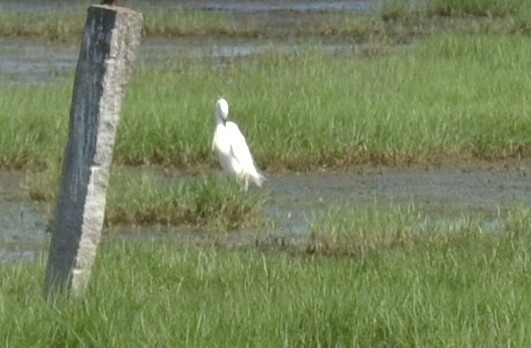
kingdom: Animalia
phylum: Chordata
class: Aves
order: Pelecaniformes
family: Ardeidae
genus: Egretta
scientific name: Egretta garzetta
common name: Little egret
